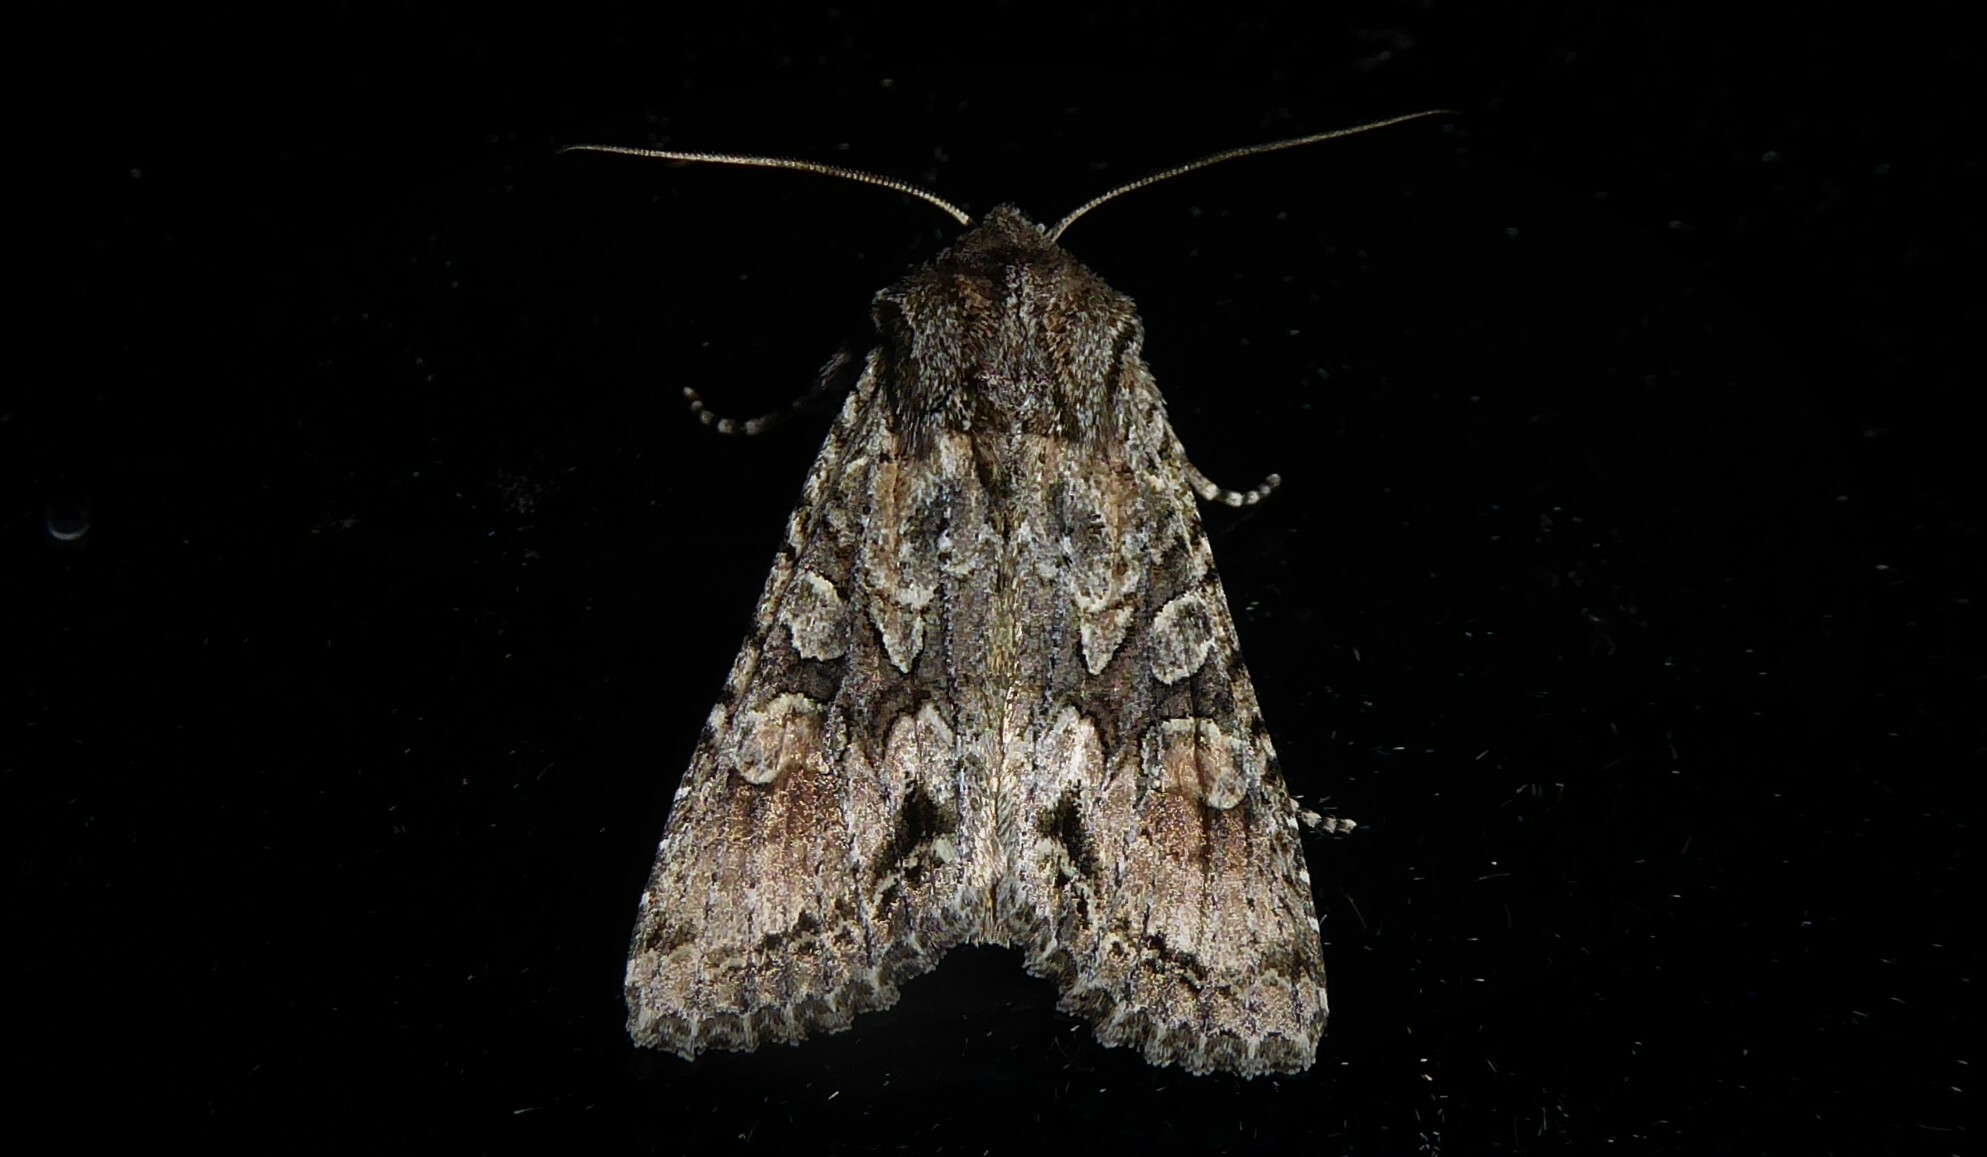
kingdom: Animalia
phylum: Arthropoda
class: Insecta
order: Lepidoptera
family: Noctuidae
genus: Ichneutica
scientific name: Ichneutica mutans
